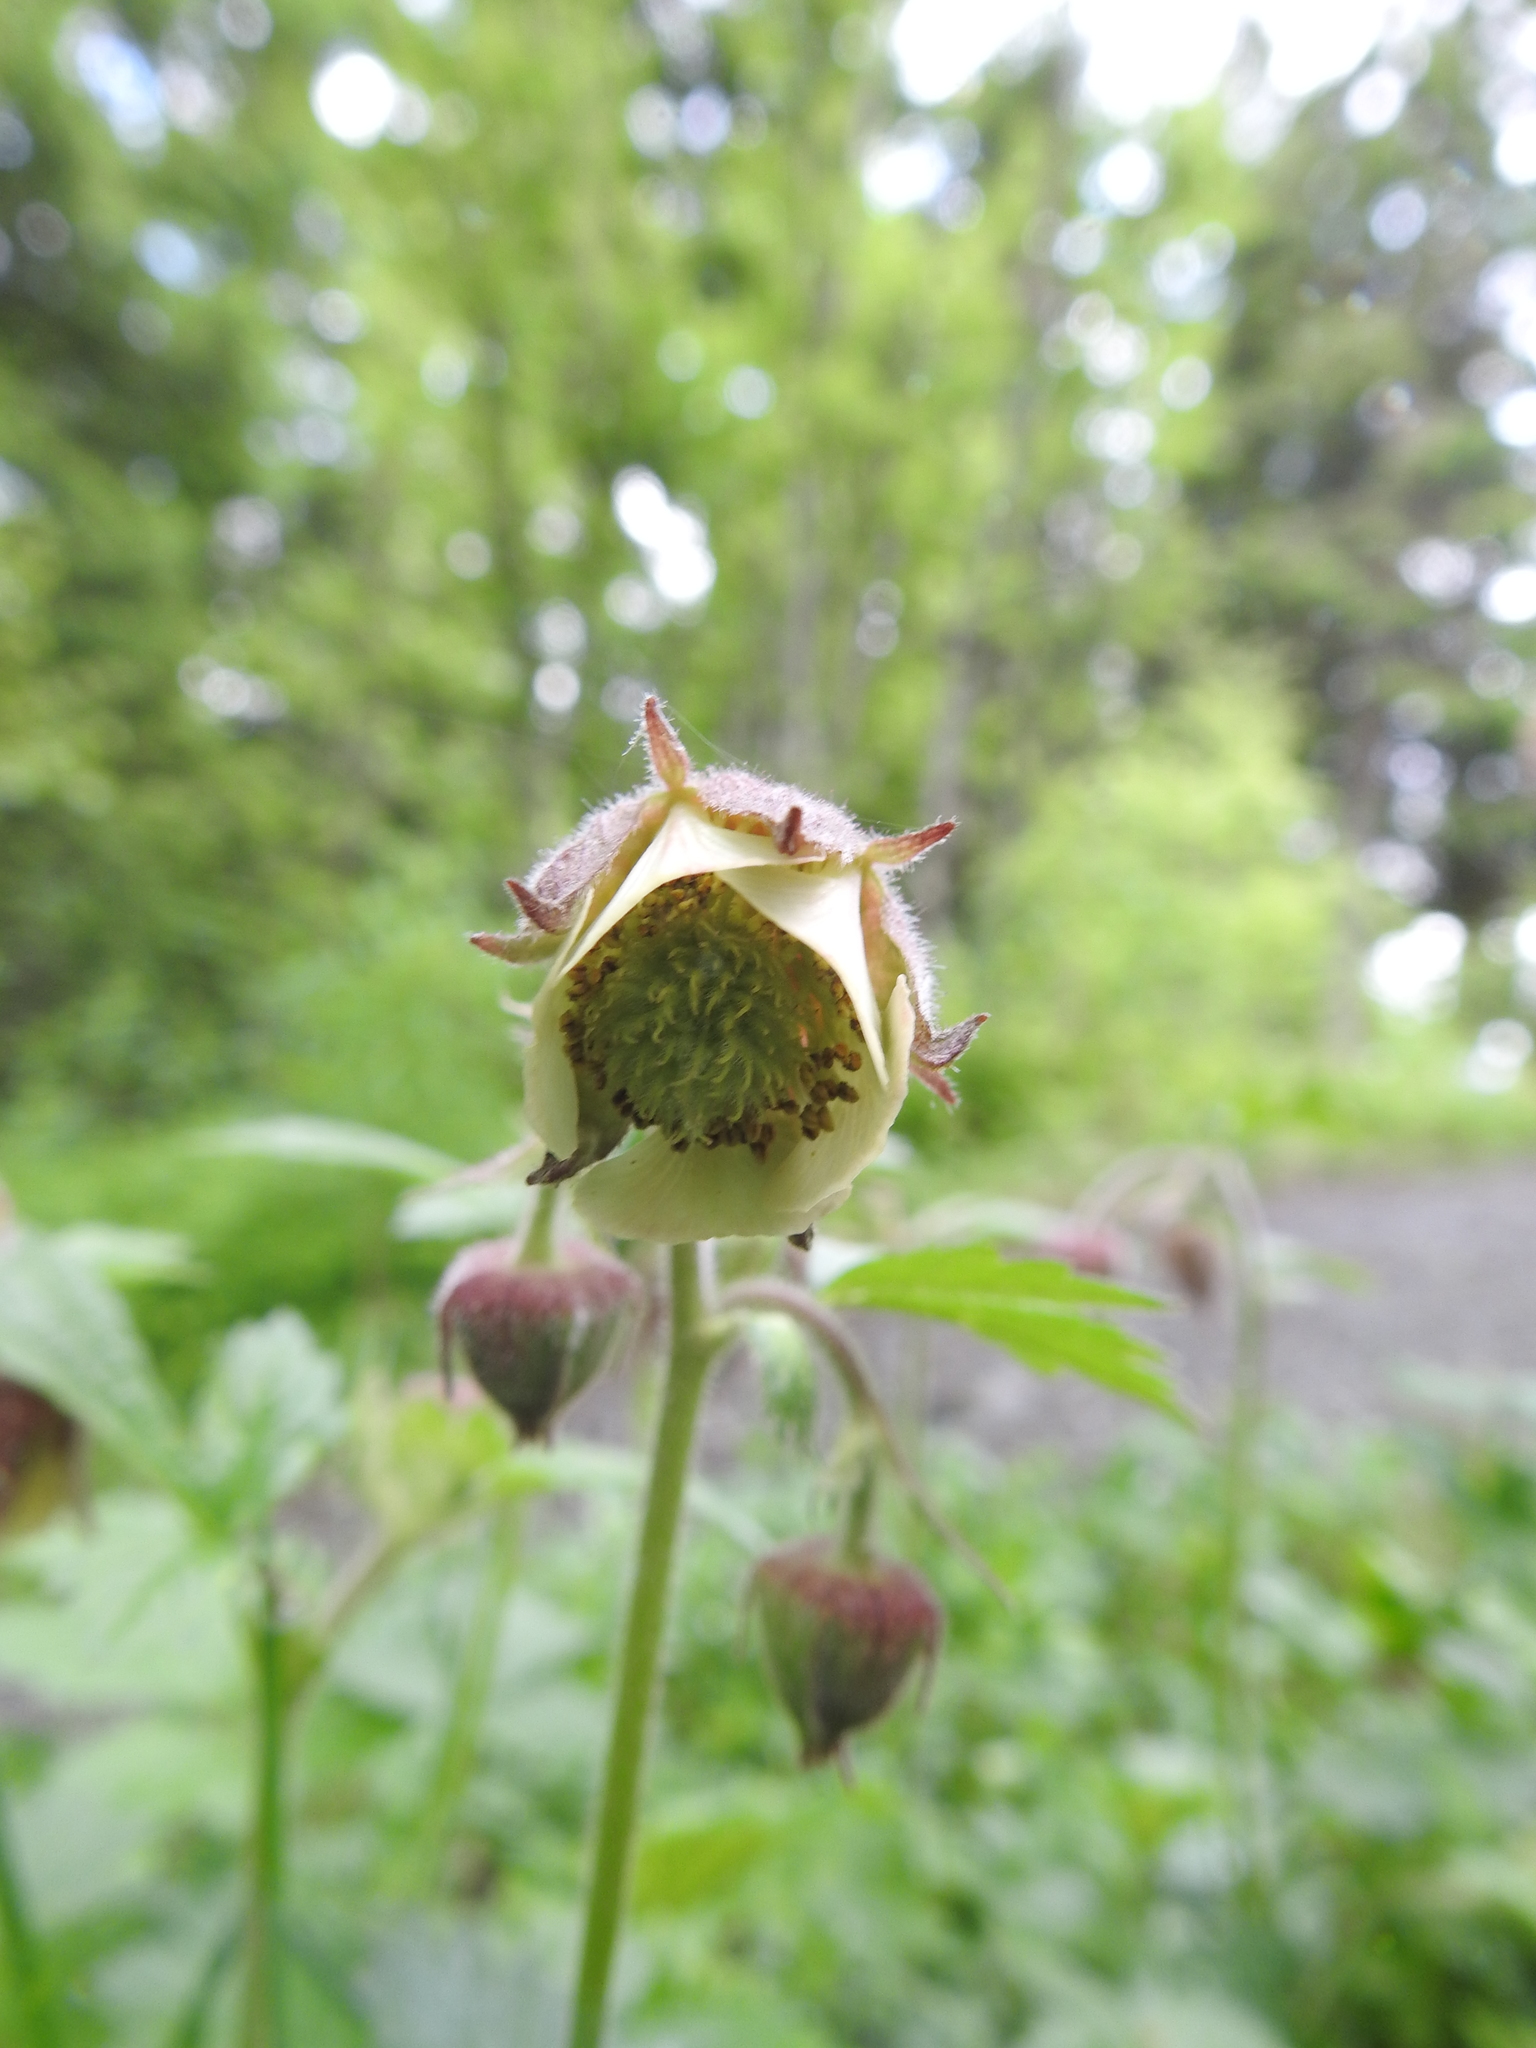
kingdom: Plantae
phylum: Tracheophyta
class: Magnoliopsida
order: Rosales
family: Rosaceae
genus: Geum
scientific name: Geum rivale
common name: Water avens
